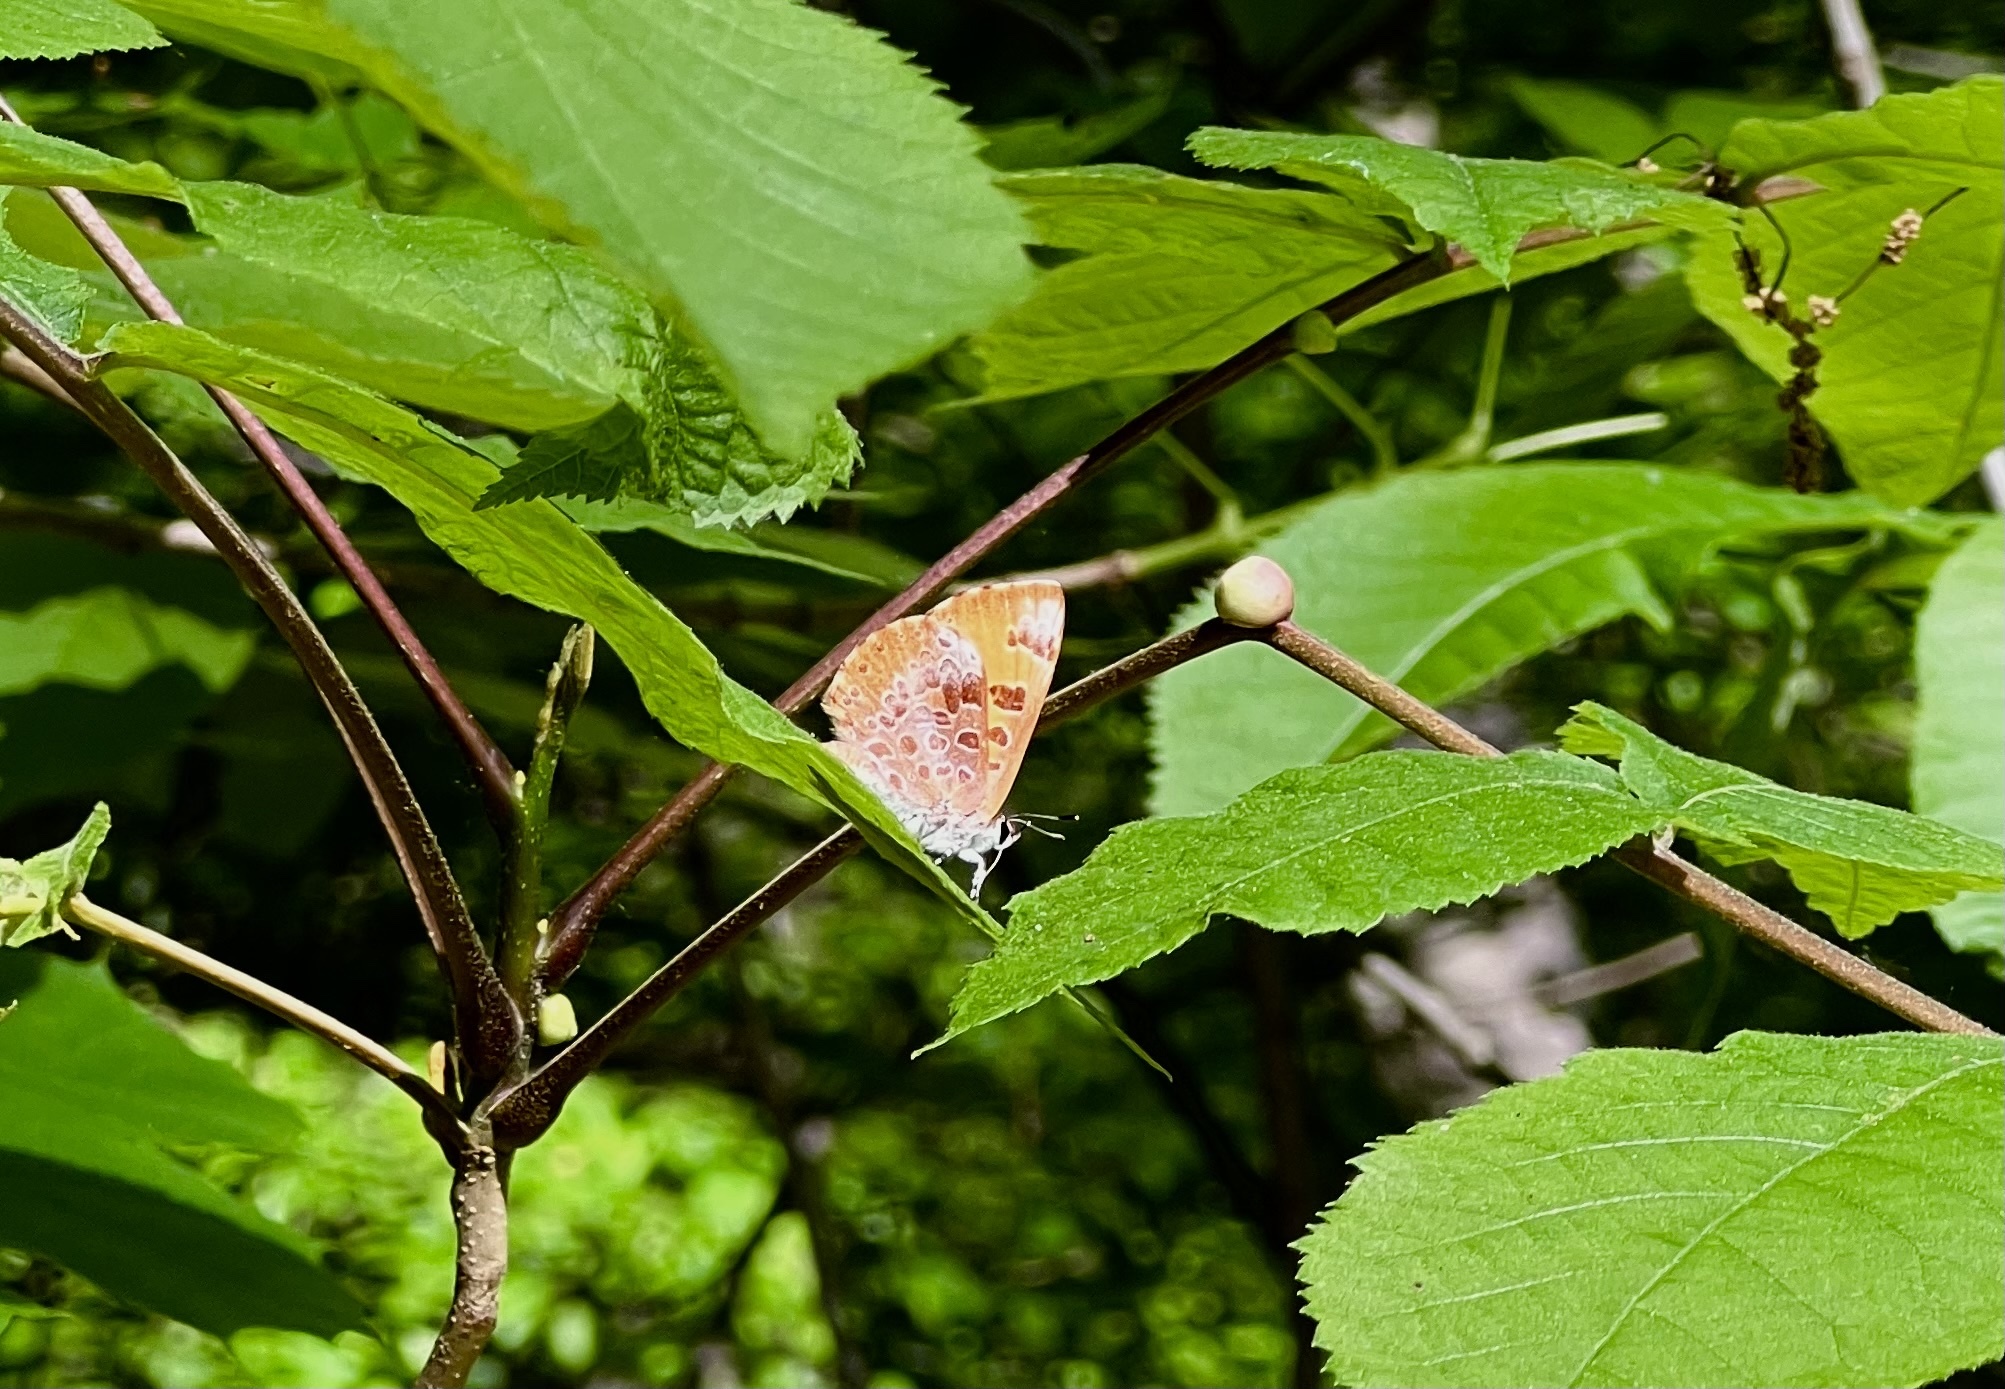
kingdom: Animalia
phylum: Arthropoda
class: Insecta
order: Lepidoptera
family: Lycaenidae
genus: Feniseca
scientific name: Feniseca tarquinius
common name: Harvester
